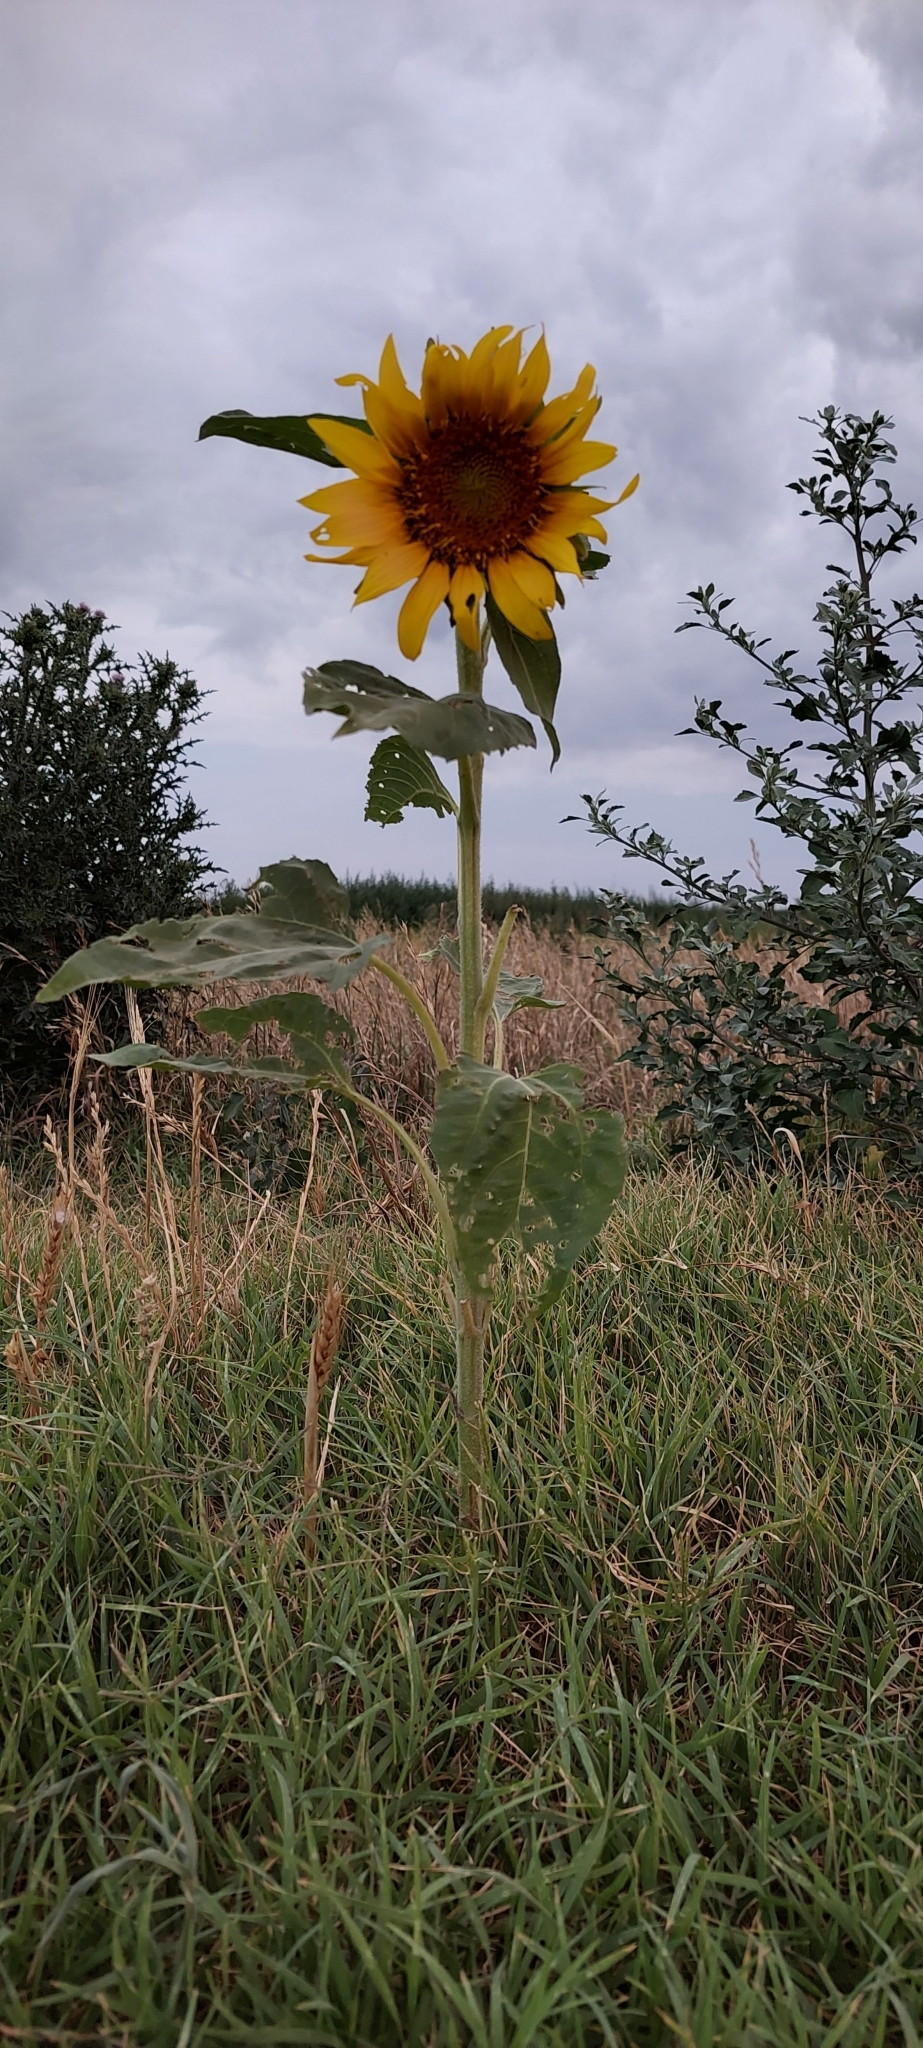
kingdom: Plantae
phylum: Tracheophyta
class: Magnoliopsida
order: Asterales
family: Asteraceae
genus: Helianthus
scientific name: Helianthus annuus
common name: Sunflower
